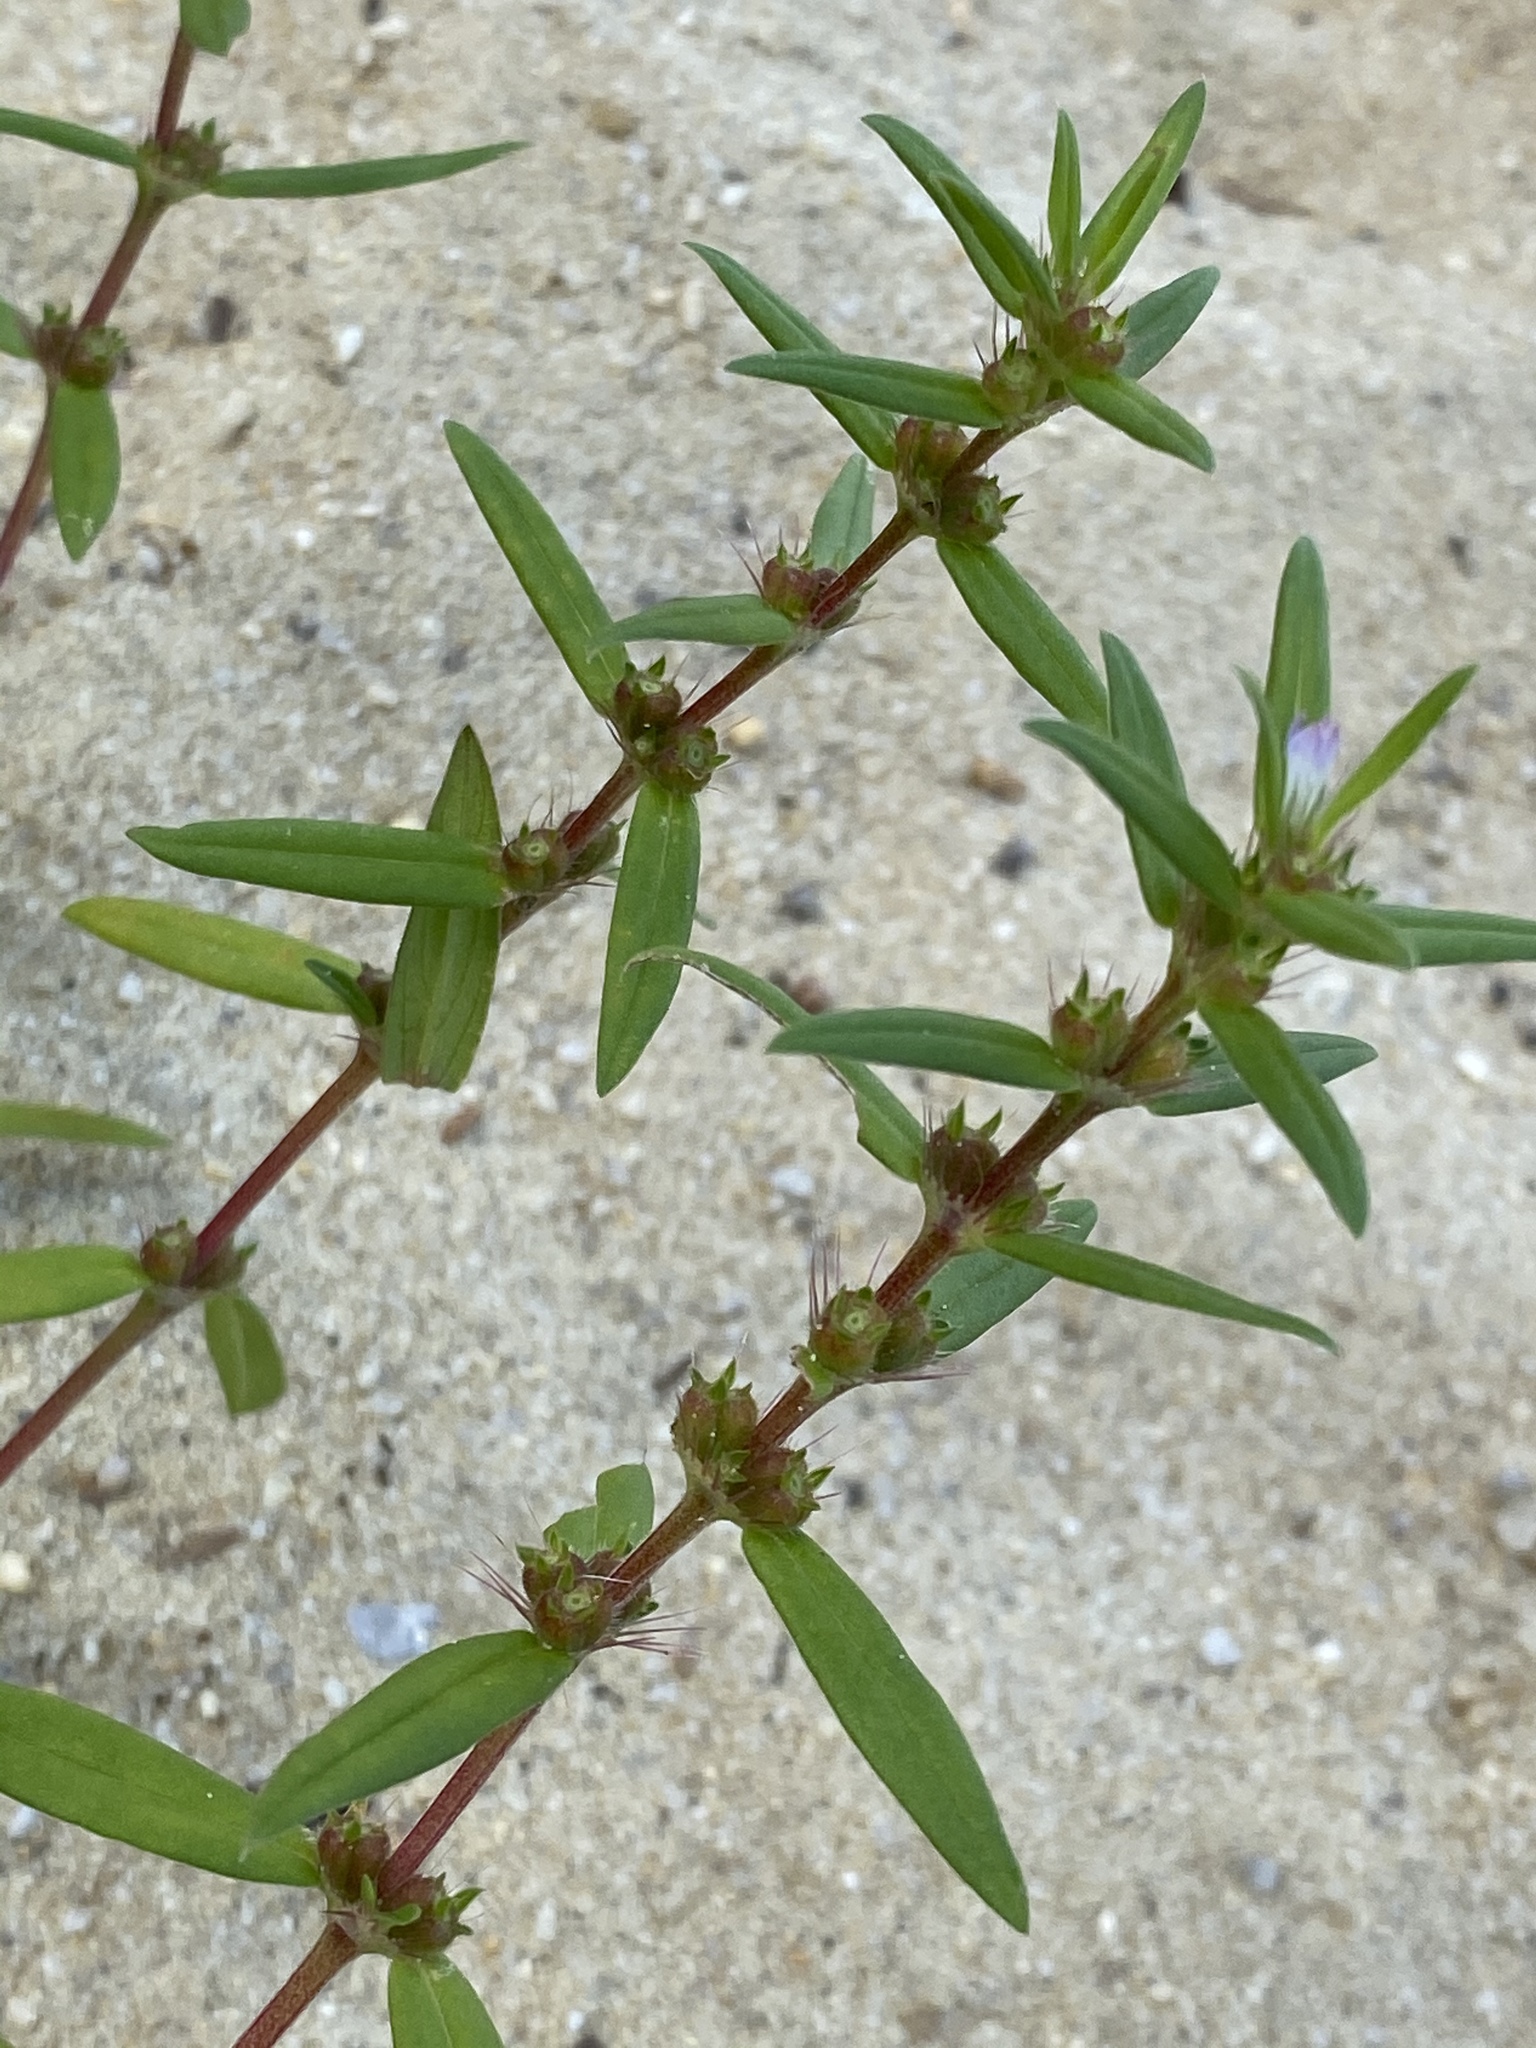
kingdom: Plantae
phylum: Tracheophyta
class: Magnoliopsida
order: Gentianales
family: Rubiaceae
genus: Hexasepalum
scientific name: Hexasepalum teres
